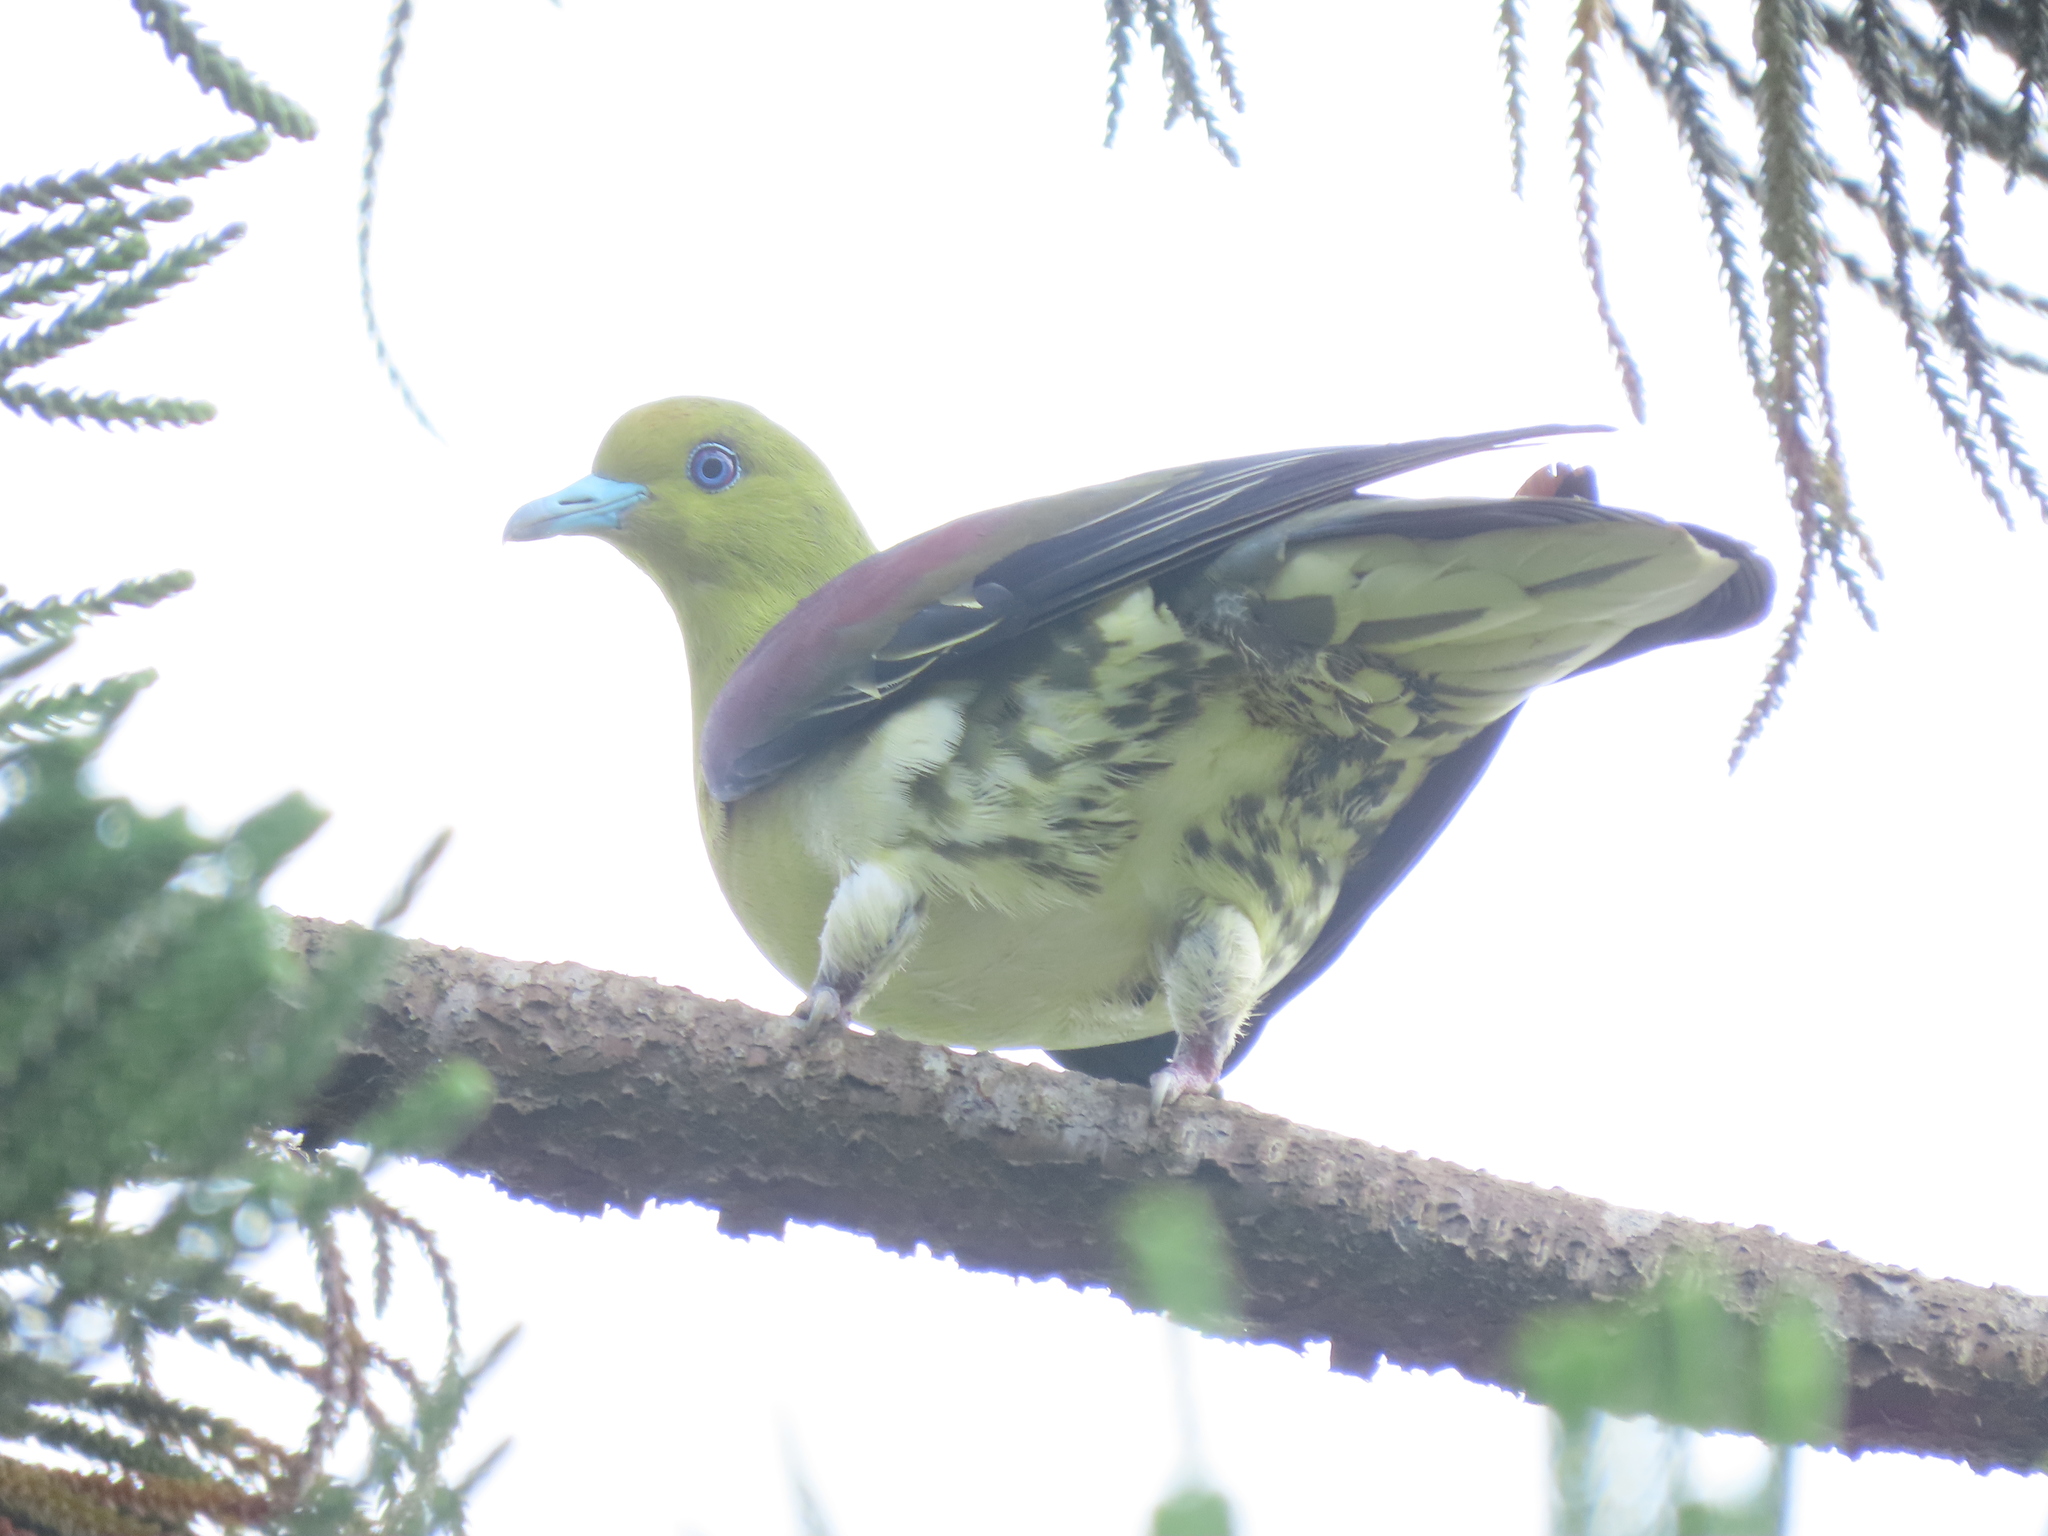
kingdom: Animalia
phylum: Chordata
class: Aves
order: Columbiformes
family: Columbidae
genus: Treron
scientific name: Treron sieboldii
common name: White-bellied green pigeon
